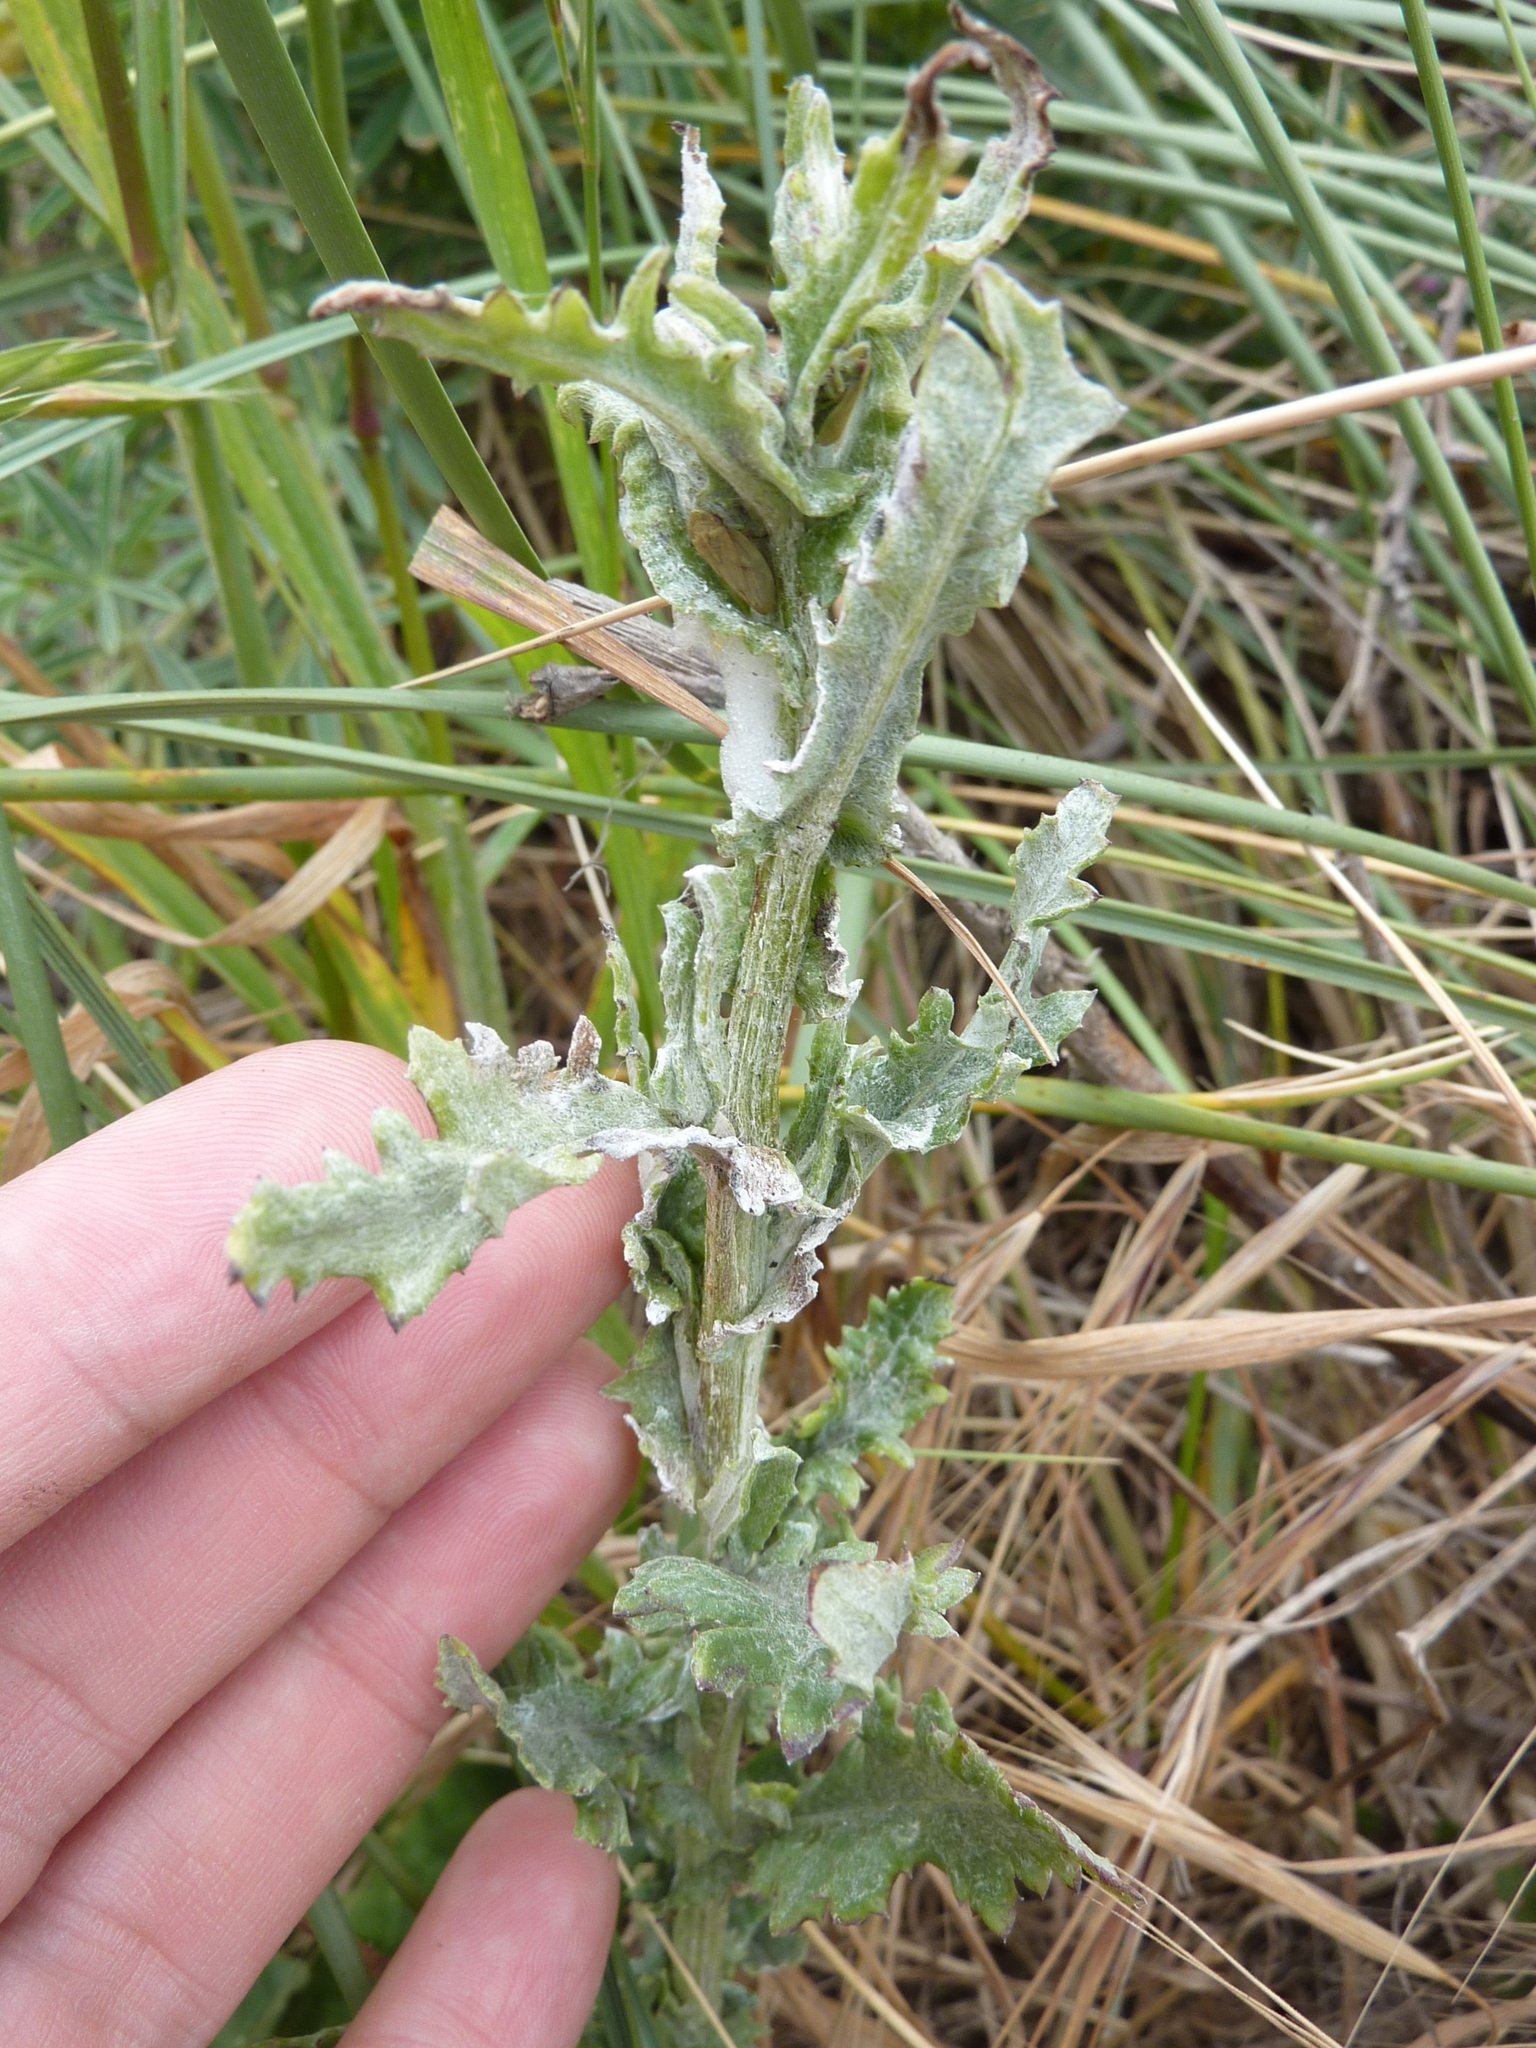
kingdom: Plantae
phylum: Tracheophyta
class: Magnoliopsida
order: Asterales
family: Asteraceae
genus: Senecio
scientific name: Senecio glomeratus
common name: Cutleaf burnweed
